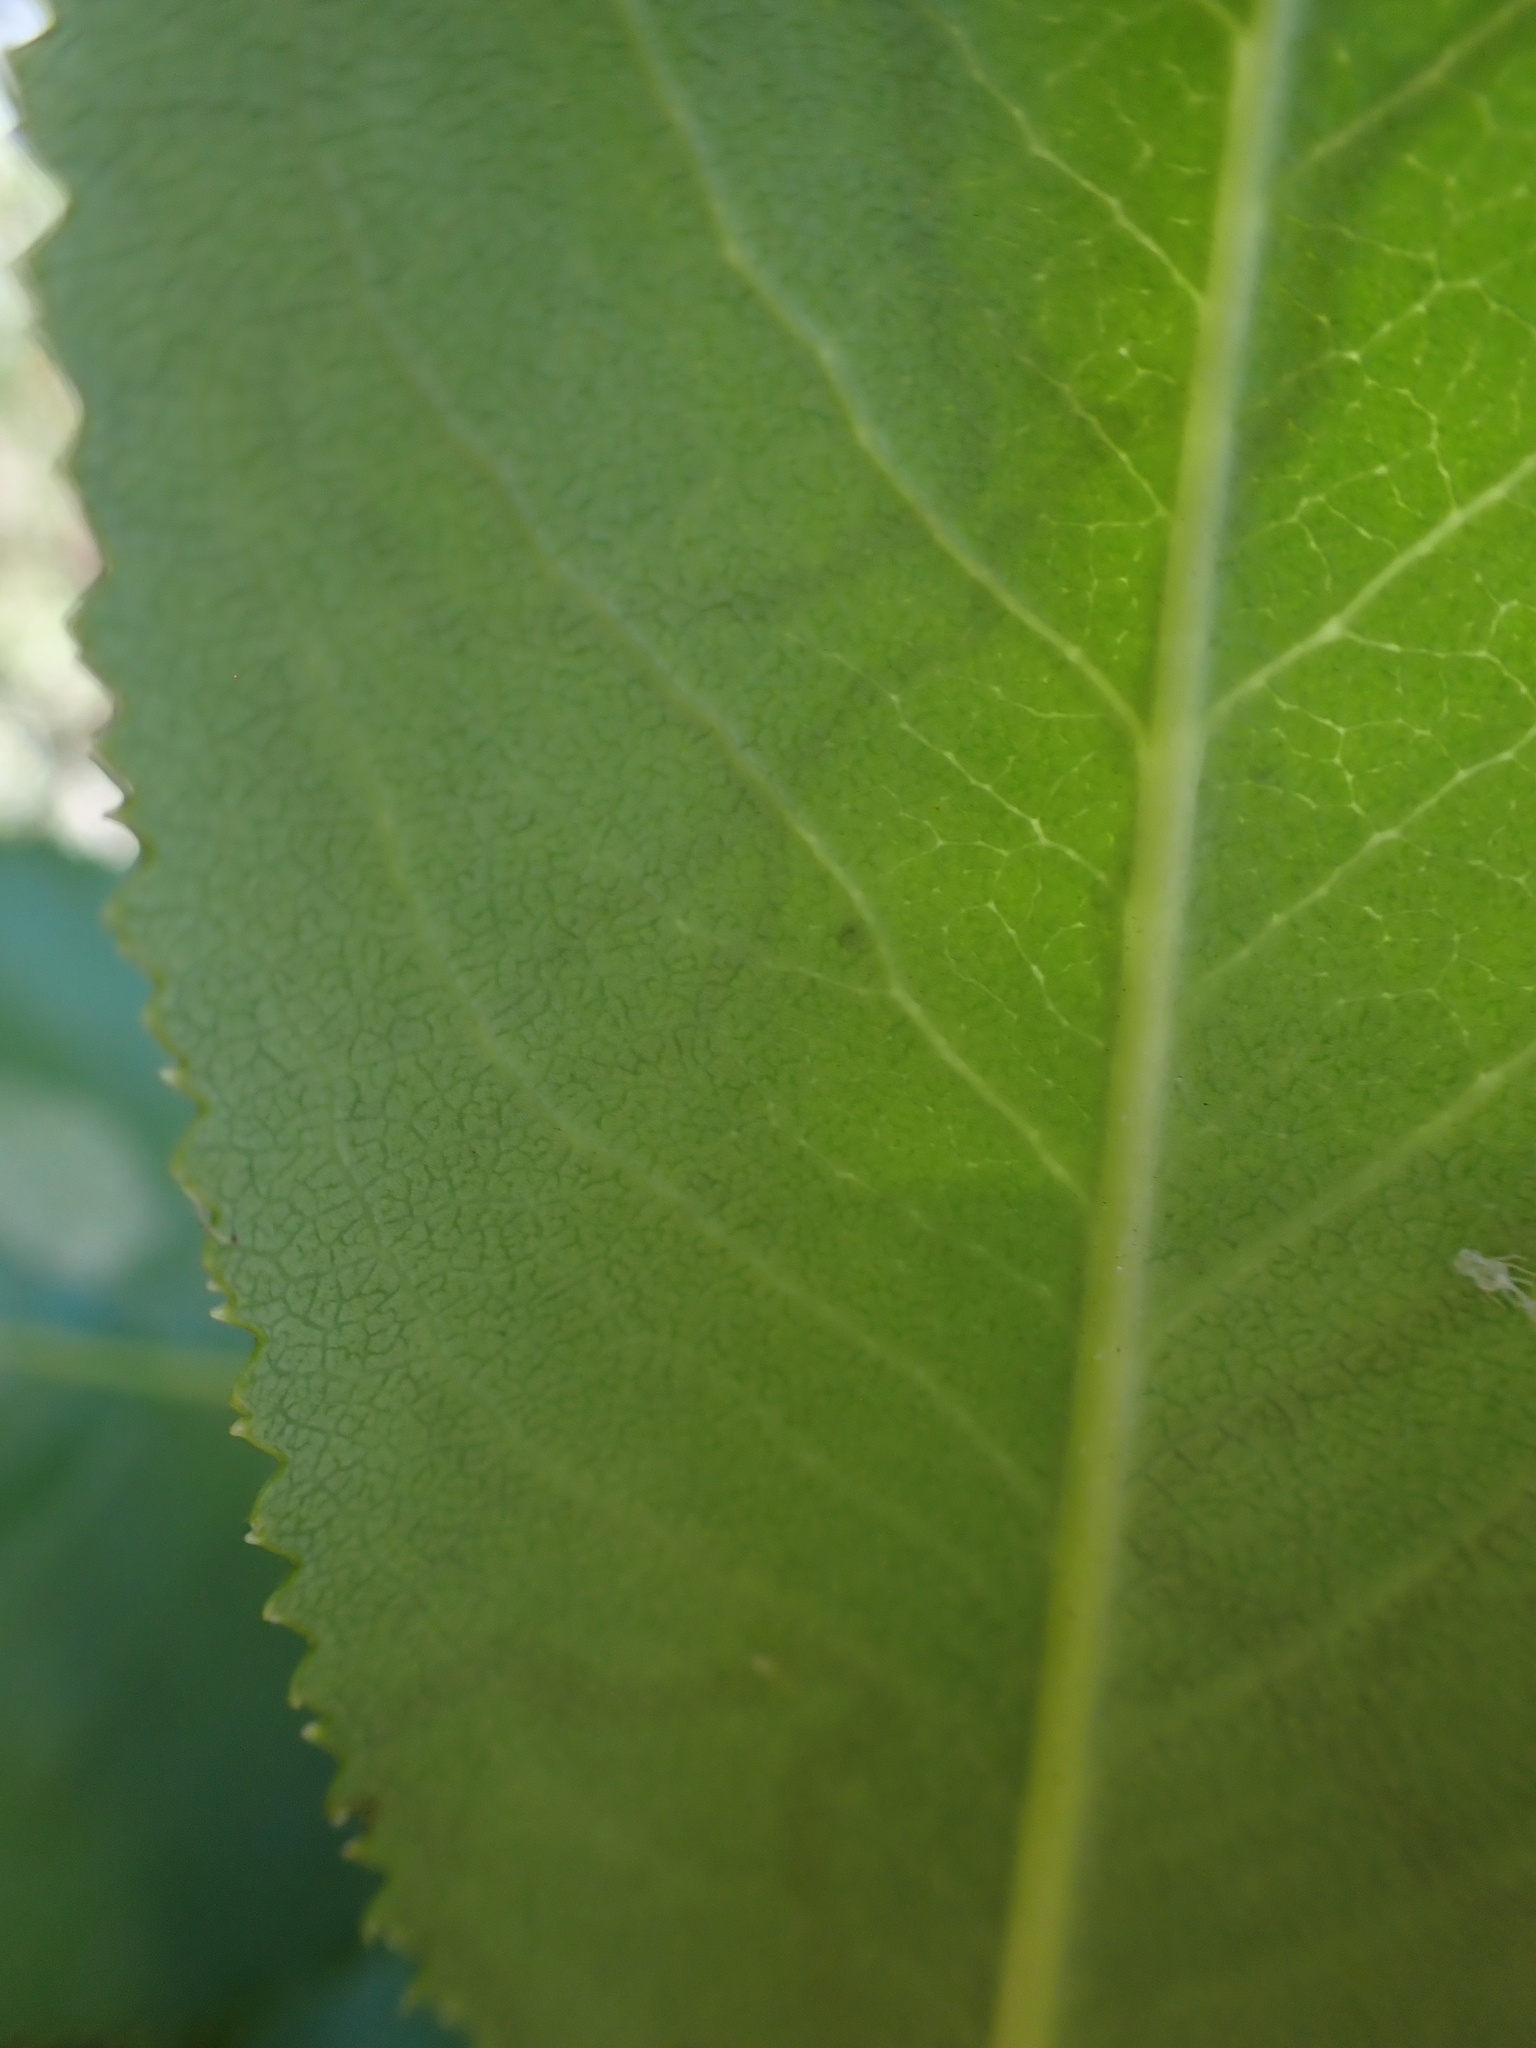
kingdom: Animalia
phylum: Arthropoda
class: Insecta
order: Lepidoptera
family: Gracillariidae
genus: Marmara
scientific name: Marmara arbutiella
